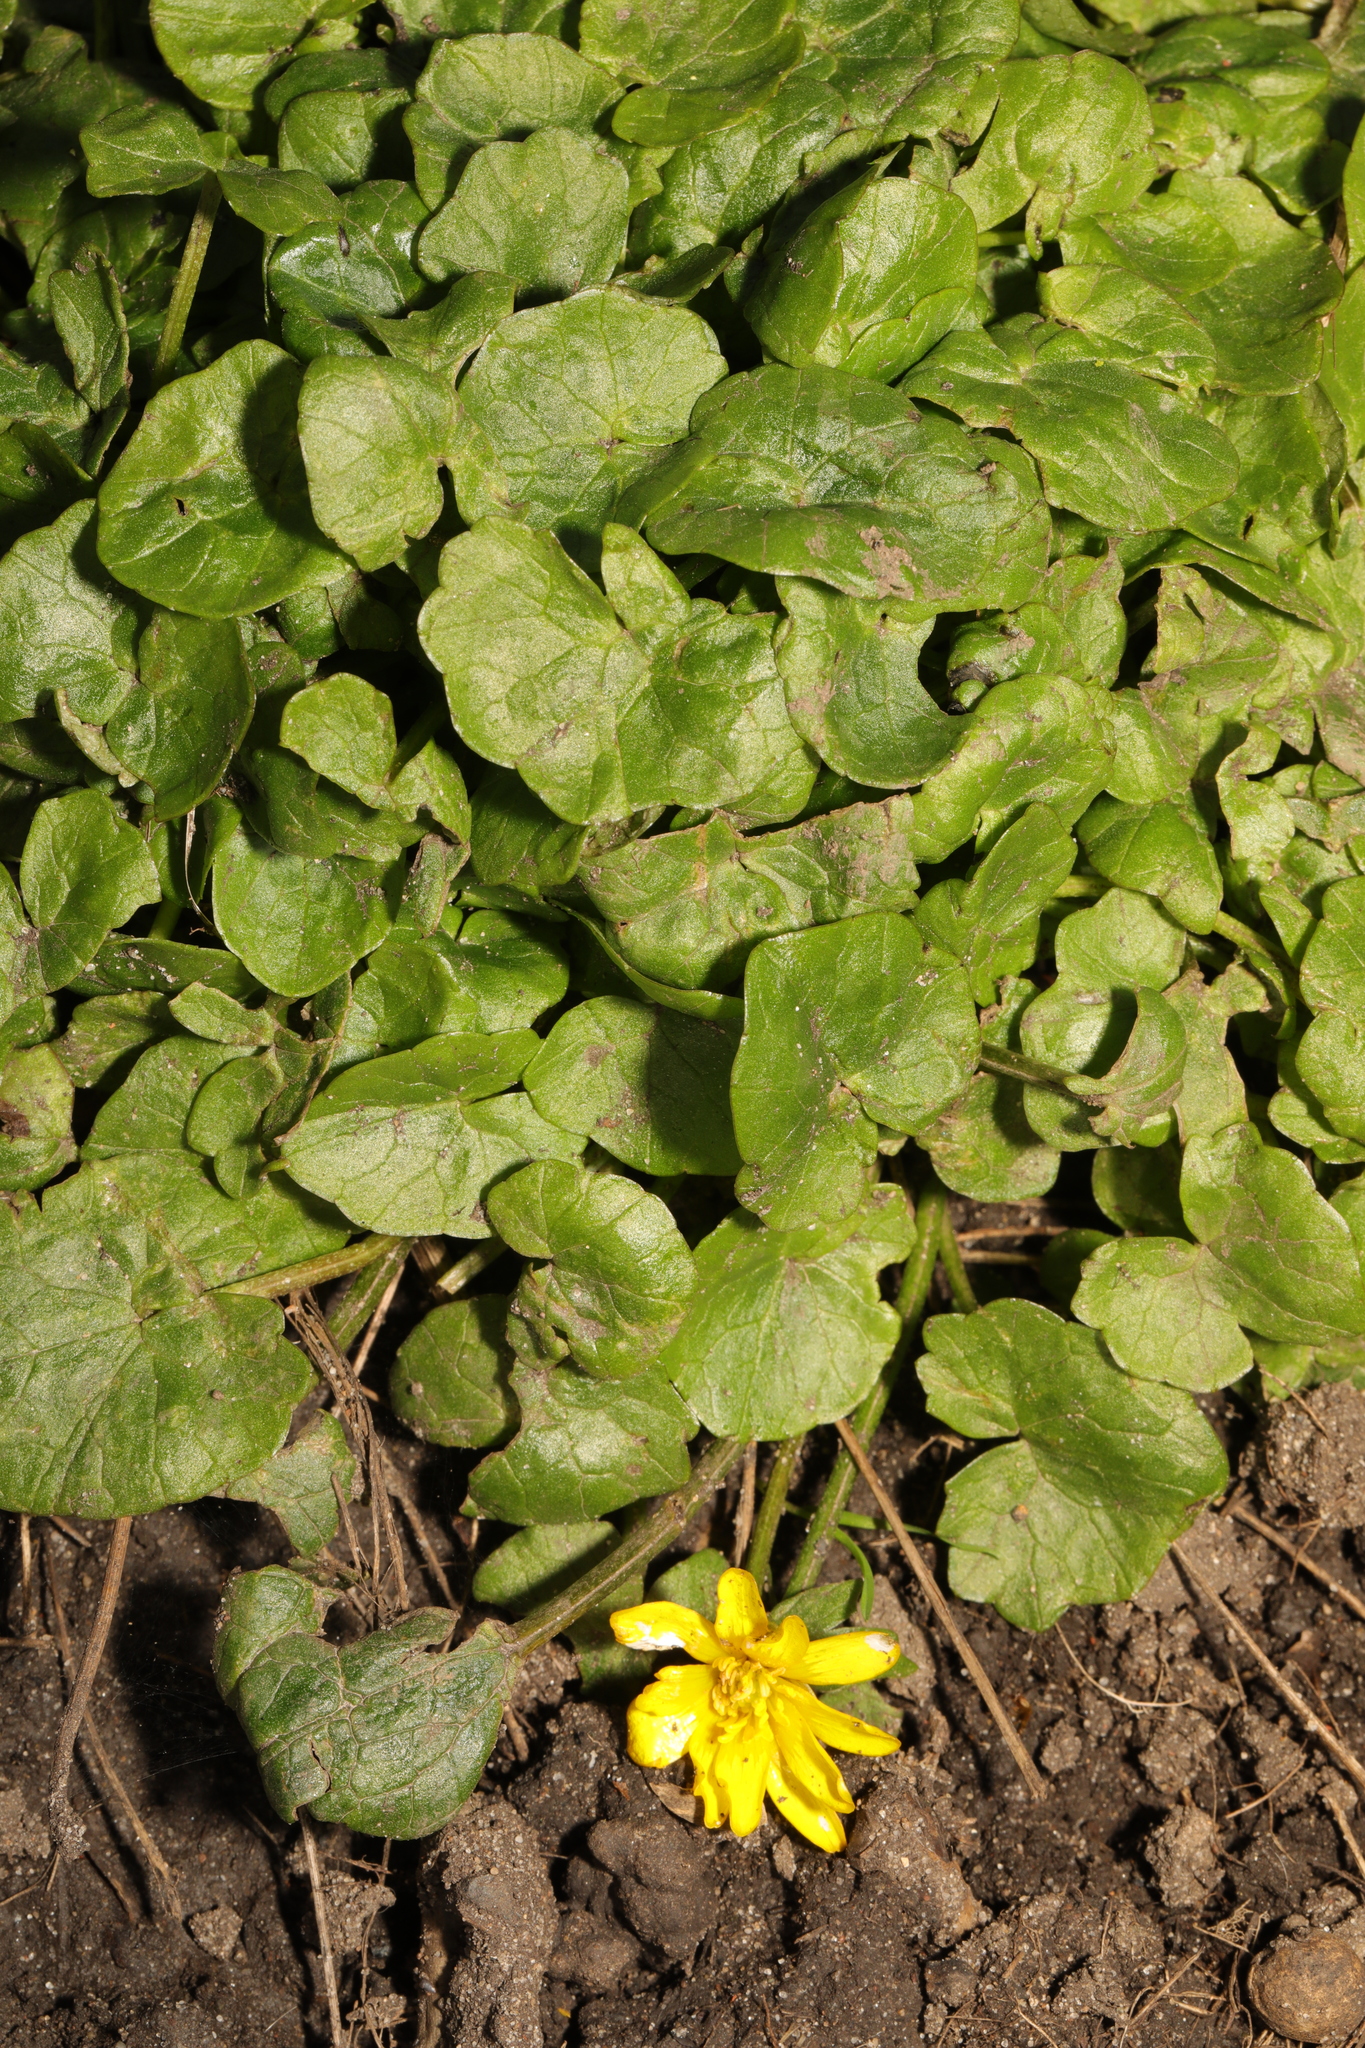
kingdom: Plantae
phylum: Tracheophyta
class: Magnoliopsida
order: Ranunculales
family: Ranunculaceae
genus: Ficaria
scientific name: Ficaria verna
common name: Lesser celandine
